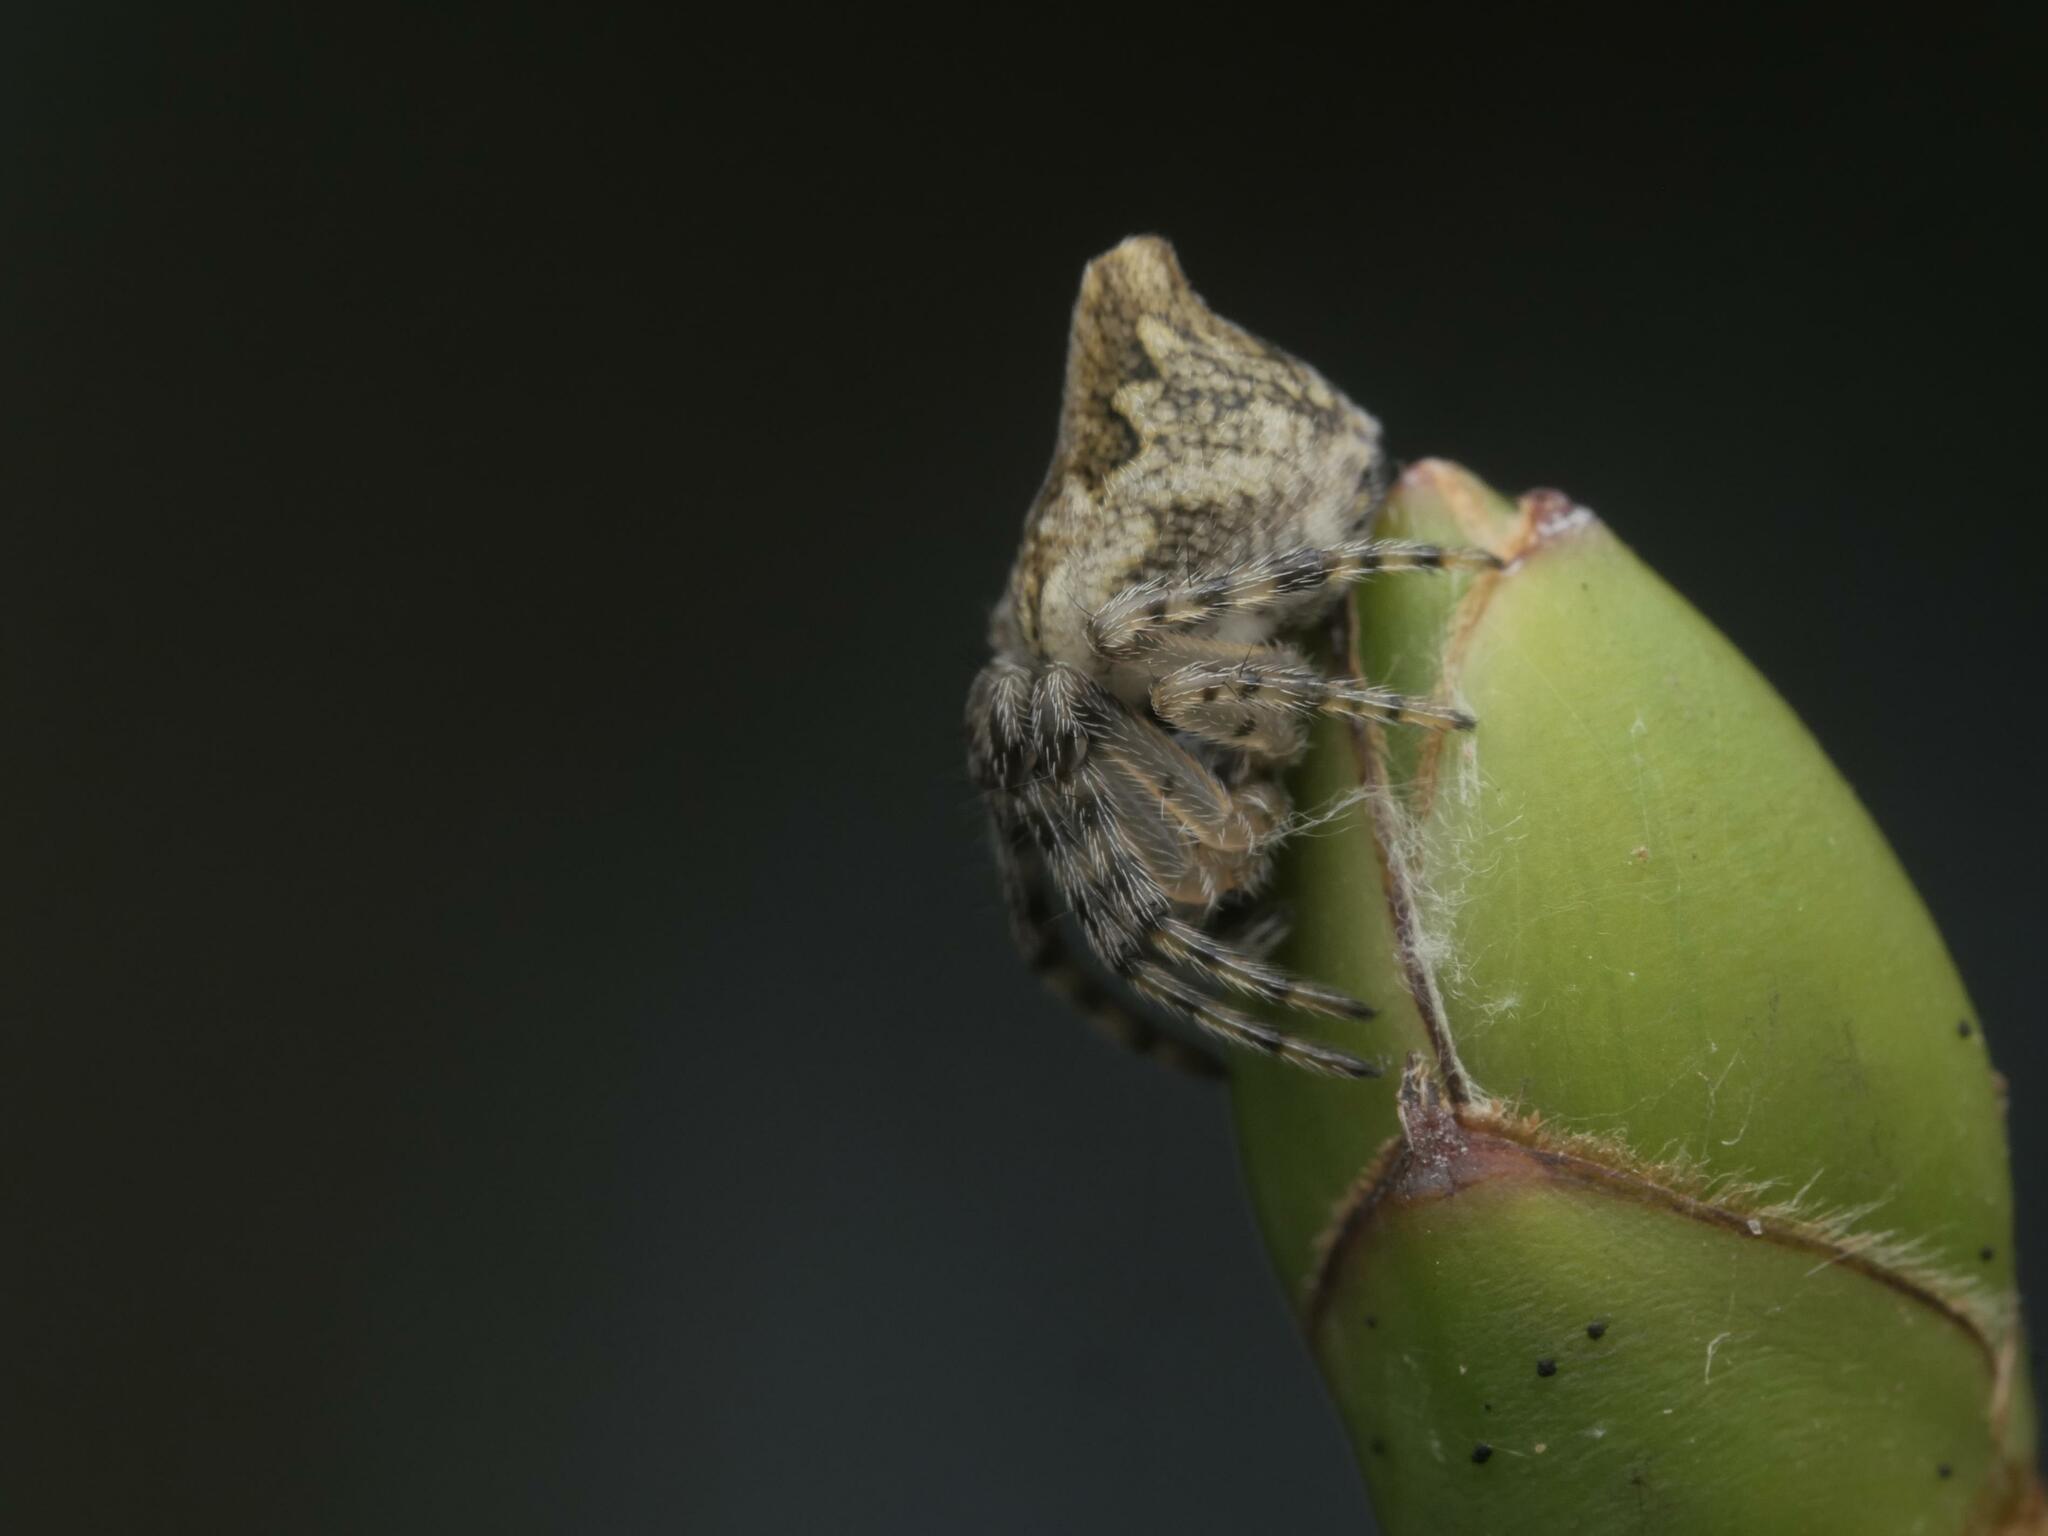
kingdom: Animalia
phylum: Arthropoda
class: Arachnida
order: Araneae
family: Araneidae
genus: Cyclosa
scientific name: Cyclosa conica
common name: Conical trashline orbweaver
